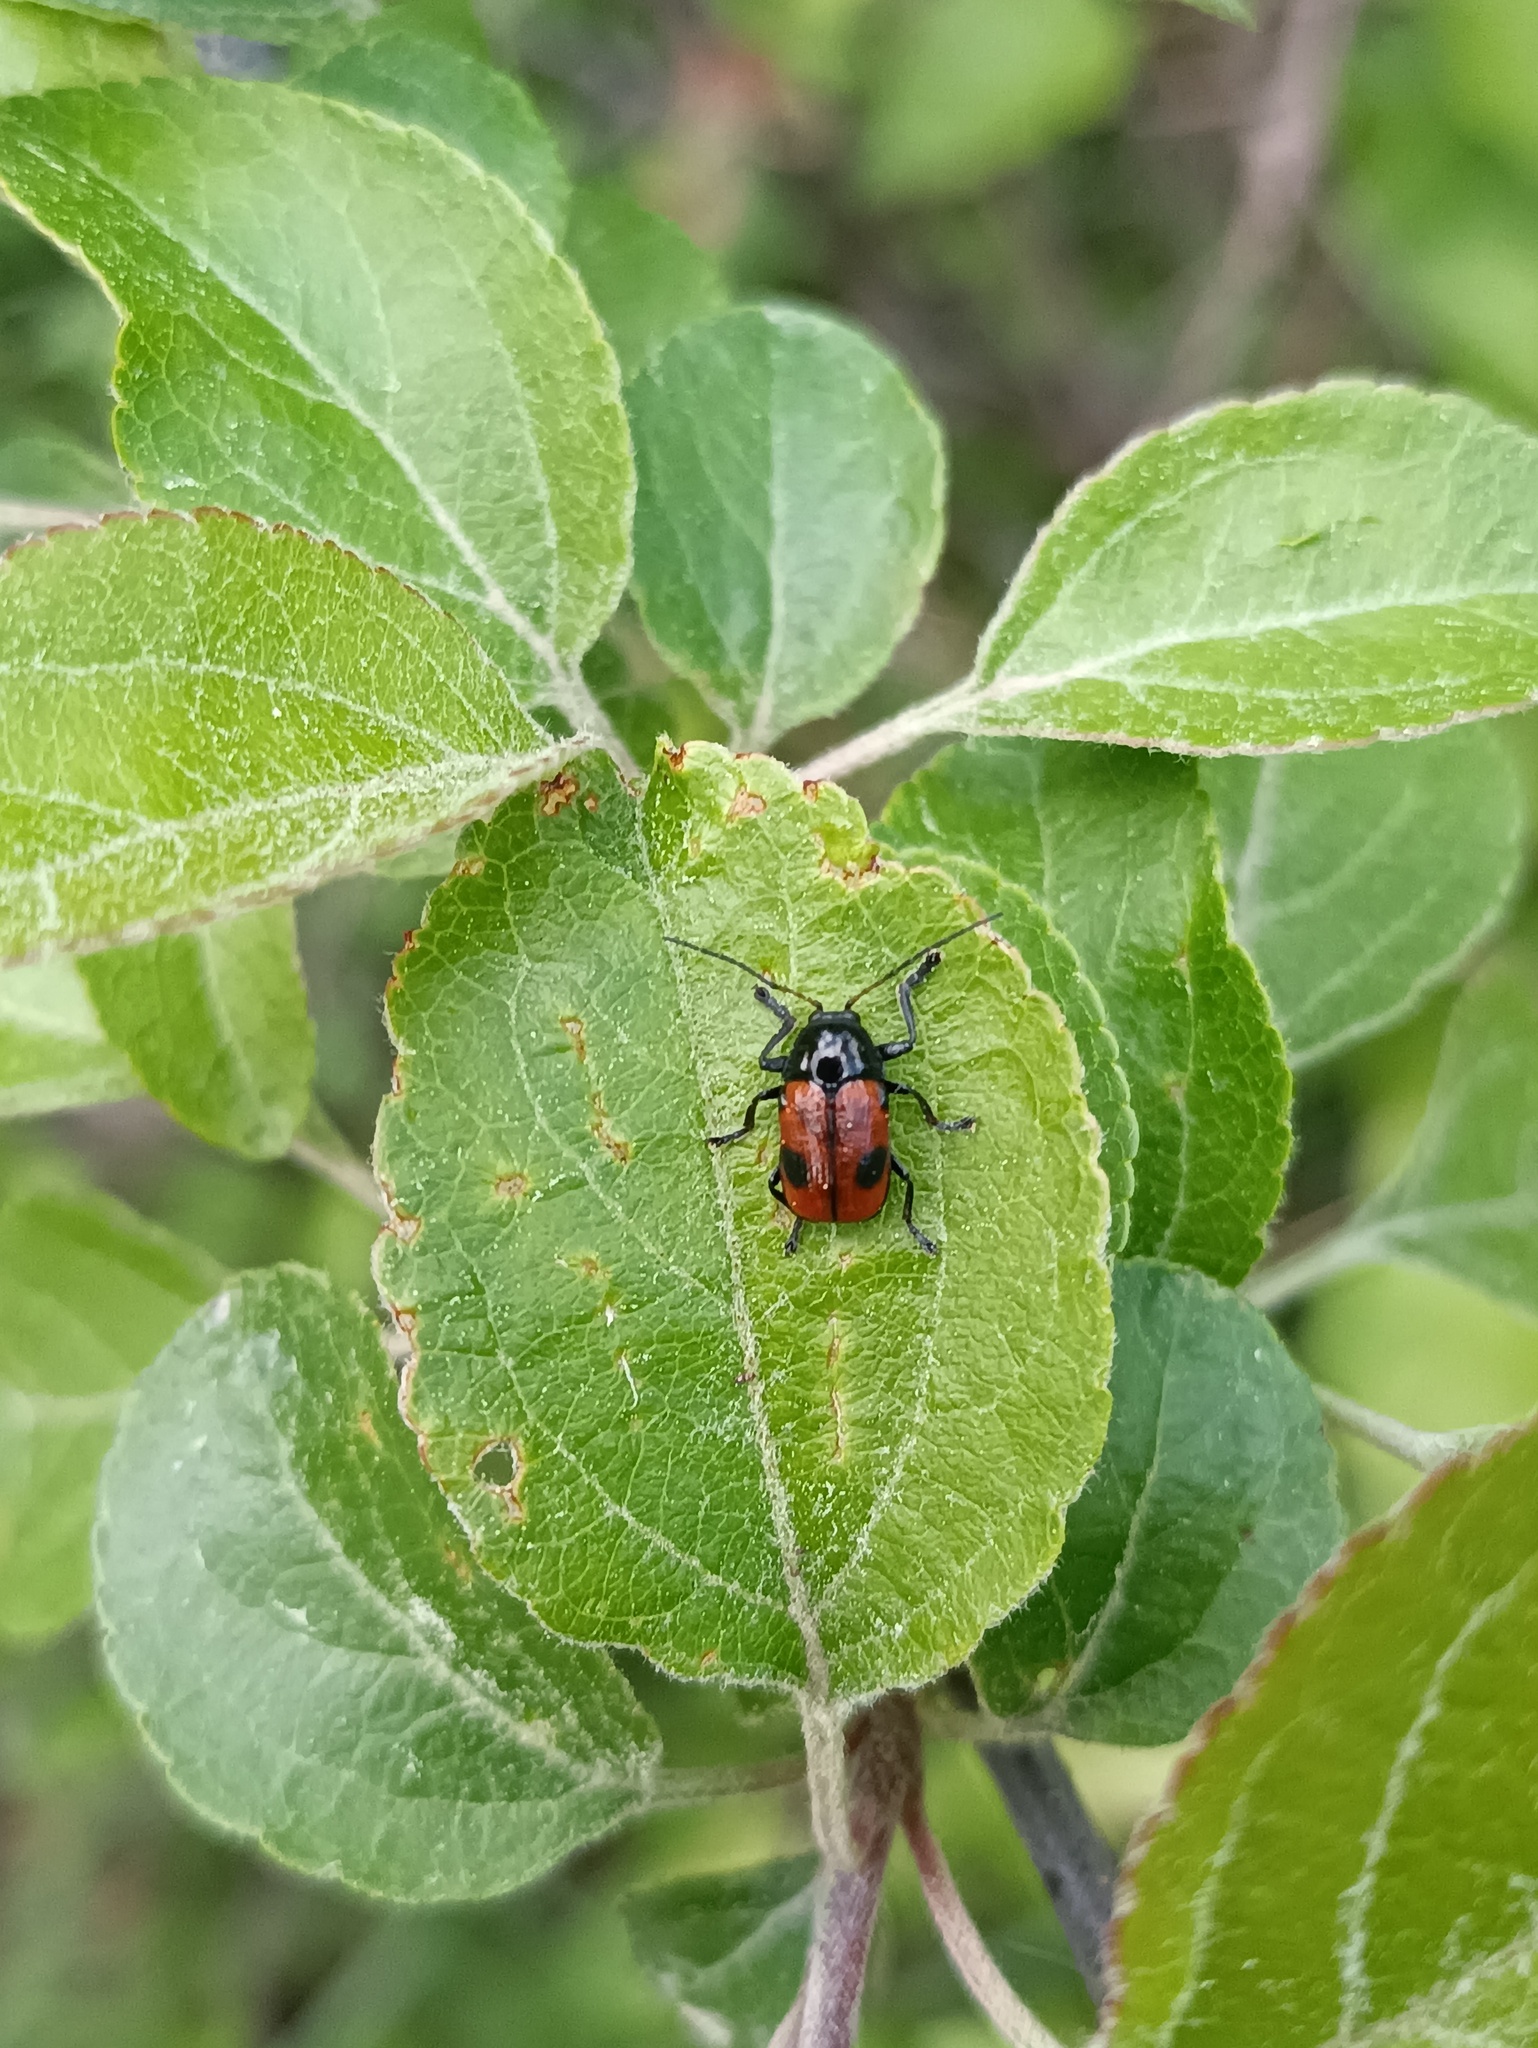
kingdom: Animalia
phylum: Arthropoda
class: Insecta
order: Coleoptera
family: Chrysomelidae
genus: Chiridopsis
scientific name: Chiridopsis bipunctata
